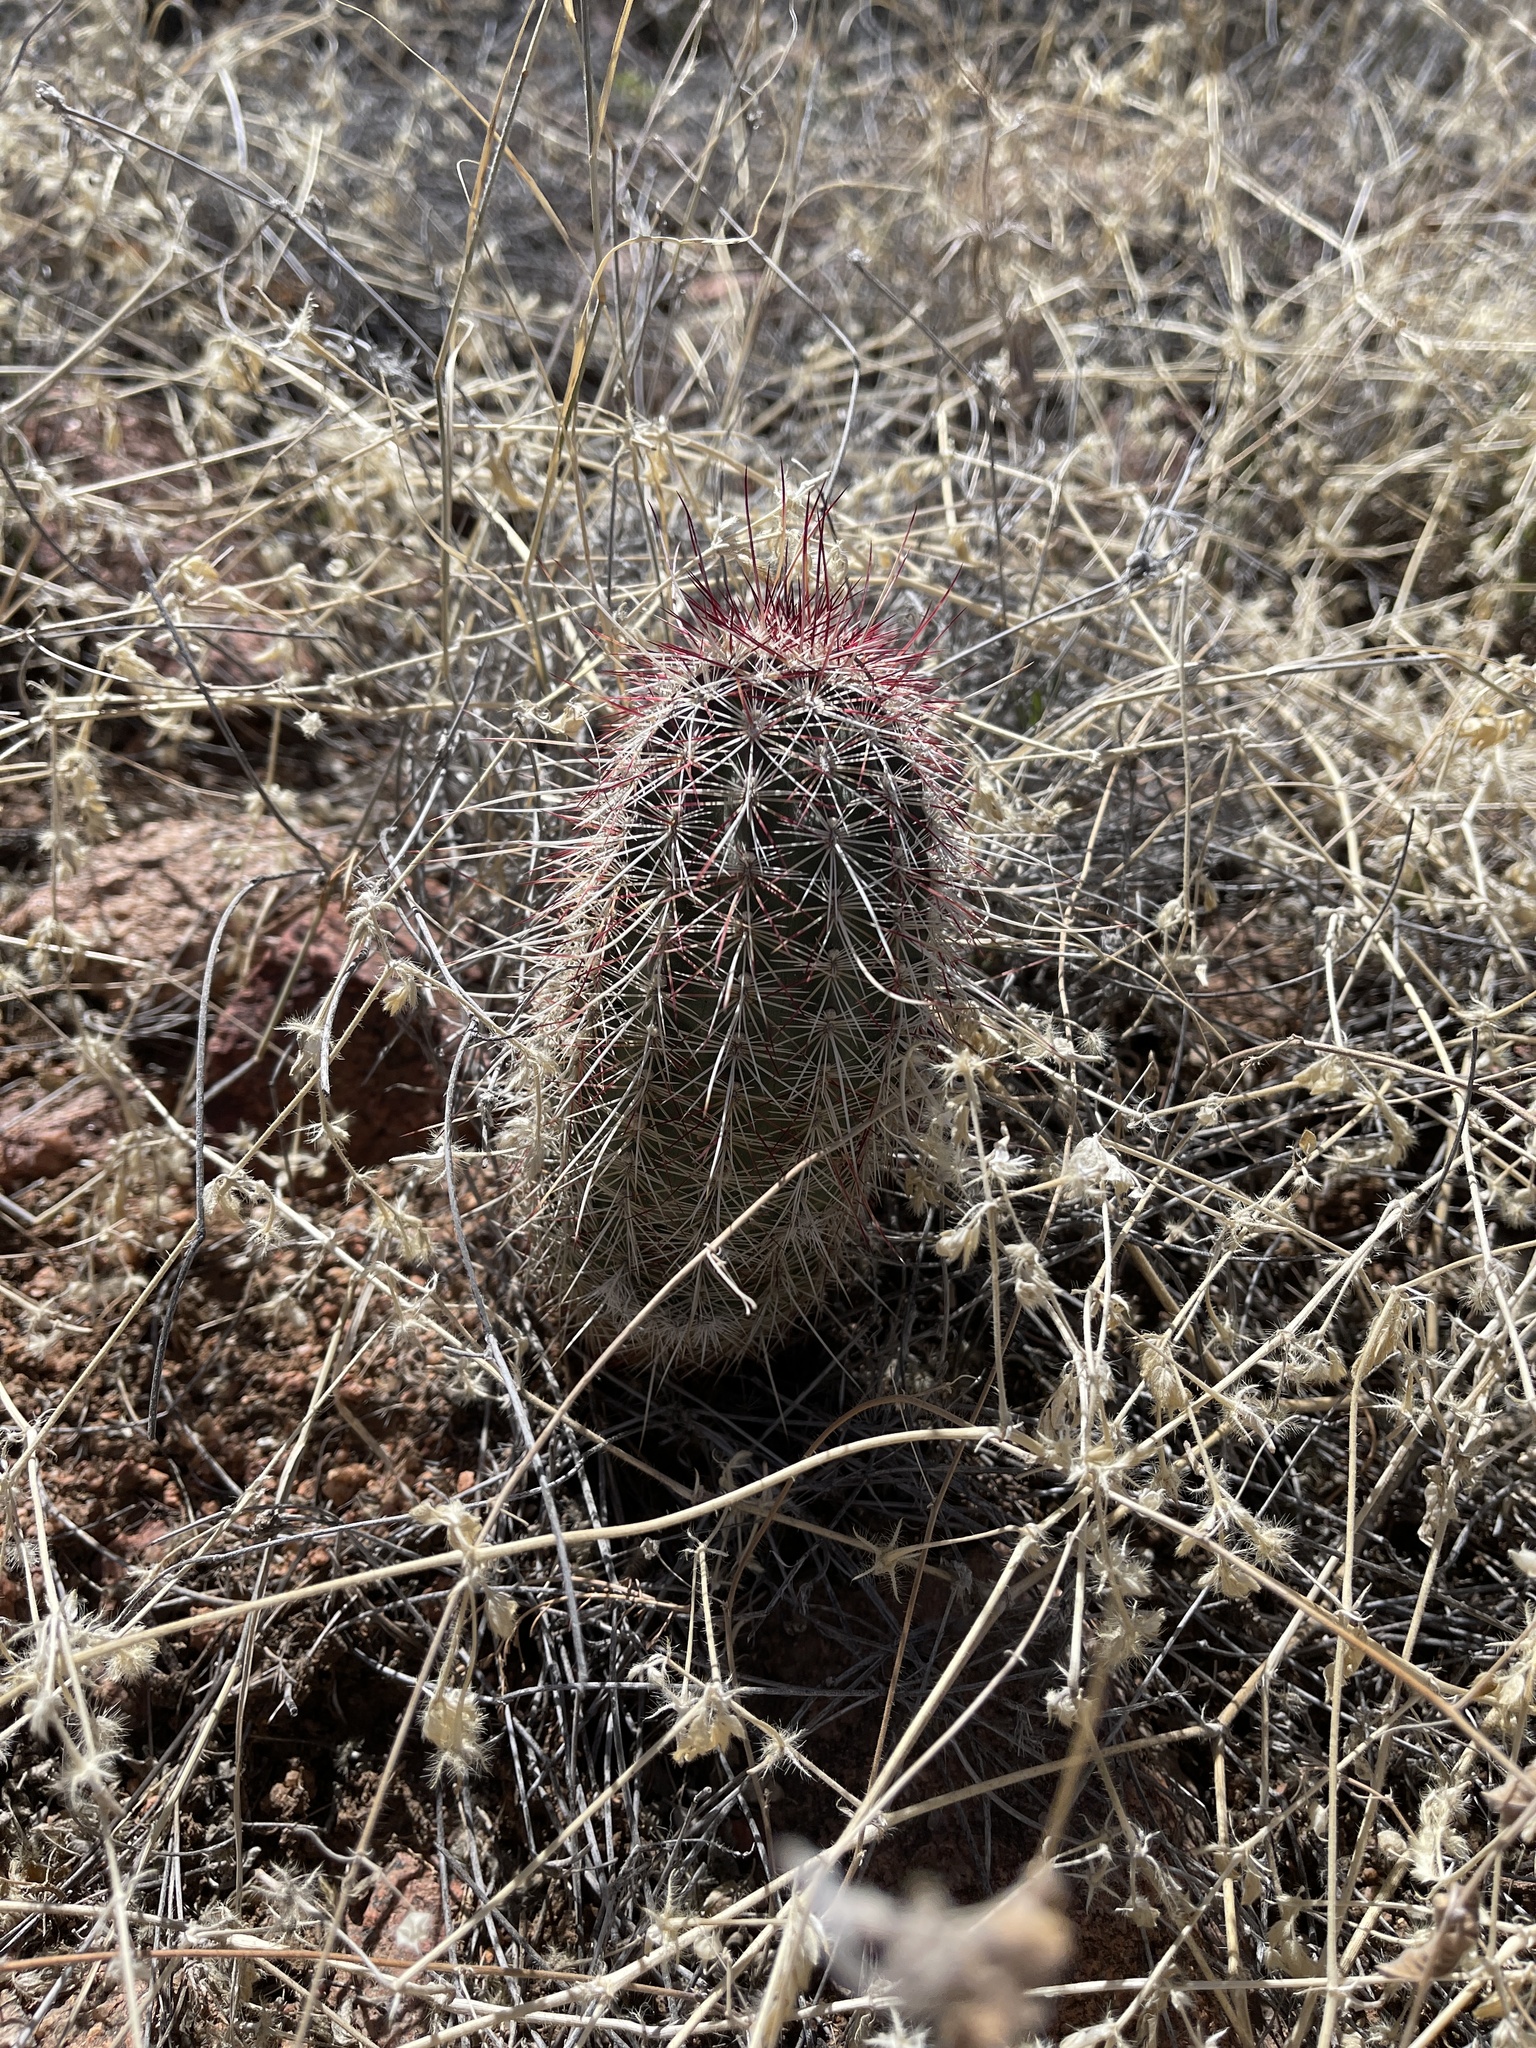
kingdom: Plantae
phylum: Tracheophyta
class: Magnoliopsida
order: Caryophyllales
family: Cactaceae
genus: Echinocereus
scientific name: Echinocereus viridiflorus
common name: Nylon hedgehog cactus
